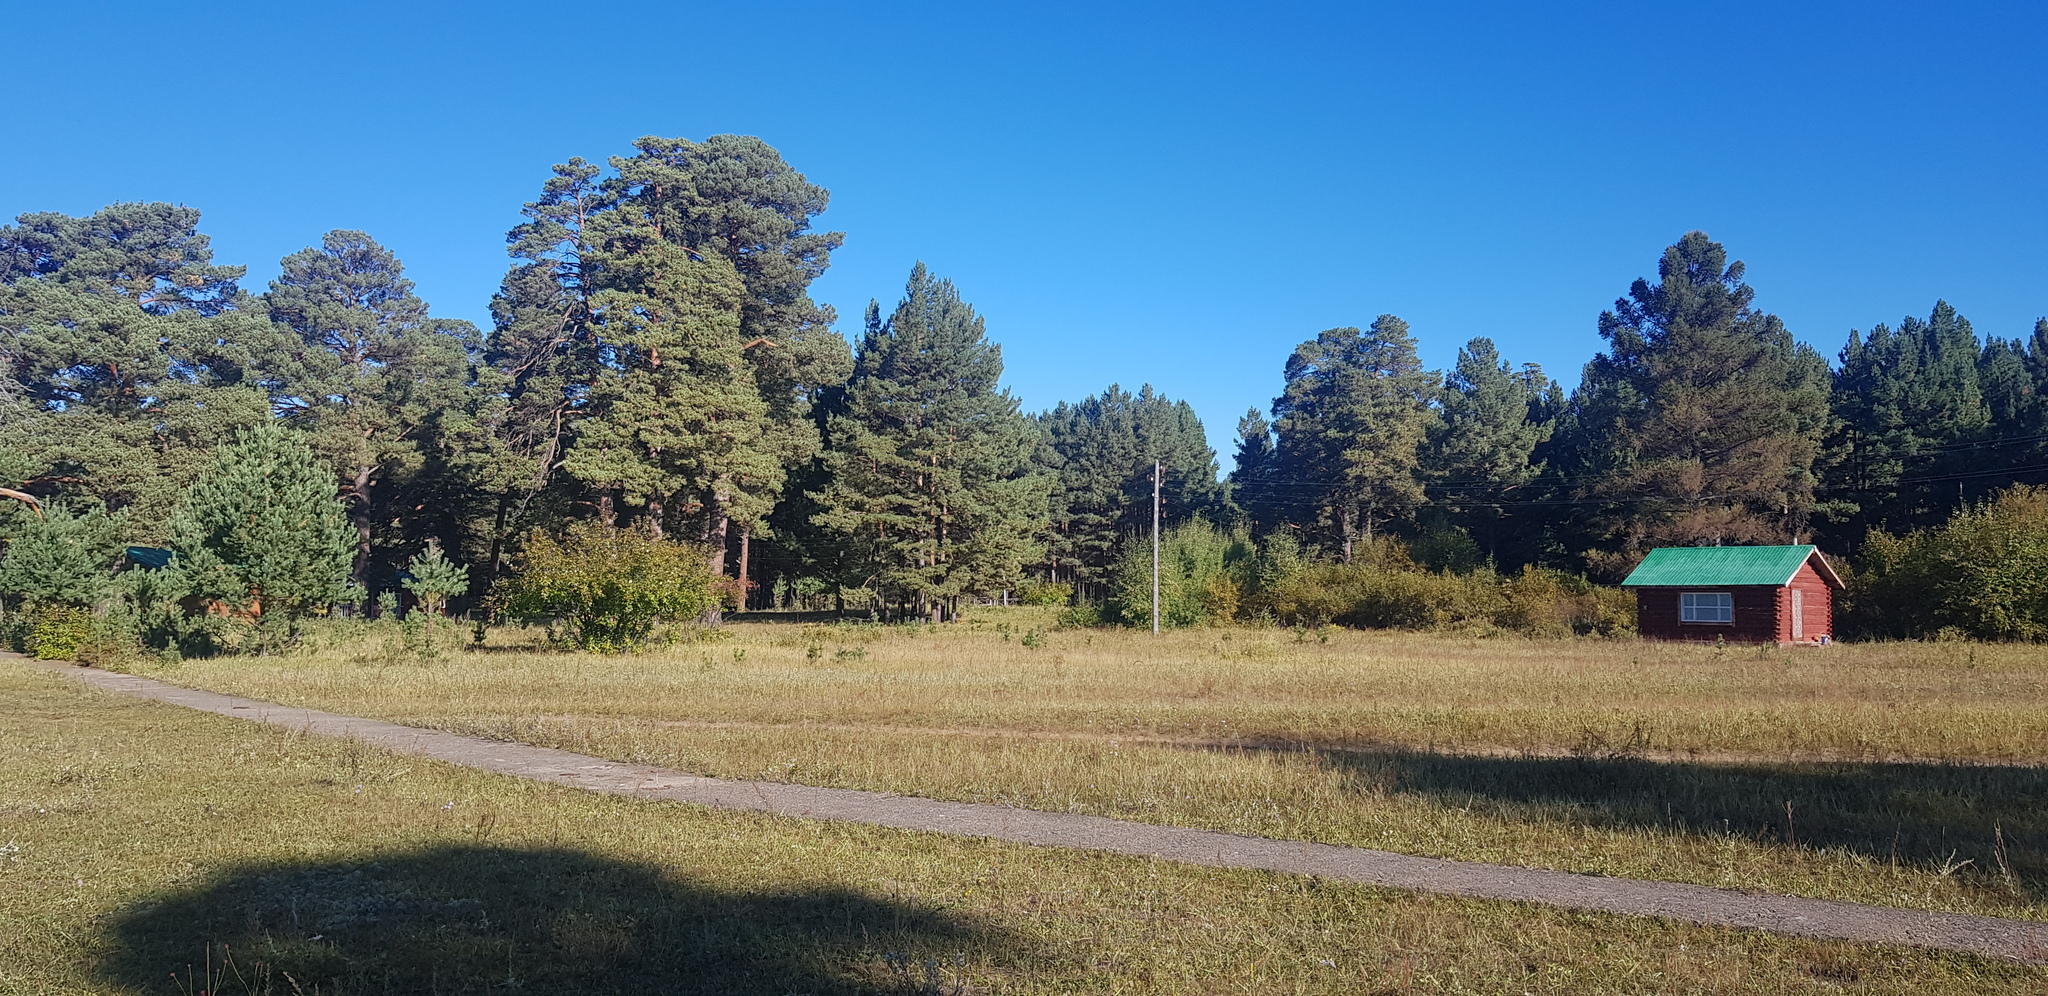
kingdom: Plantae
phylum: Tracheophyta
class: Pinopsida
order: Pinales
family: Pinaceae
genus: Pinus
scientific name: Pinus sylvestris
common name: Scots pine
